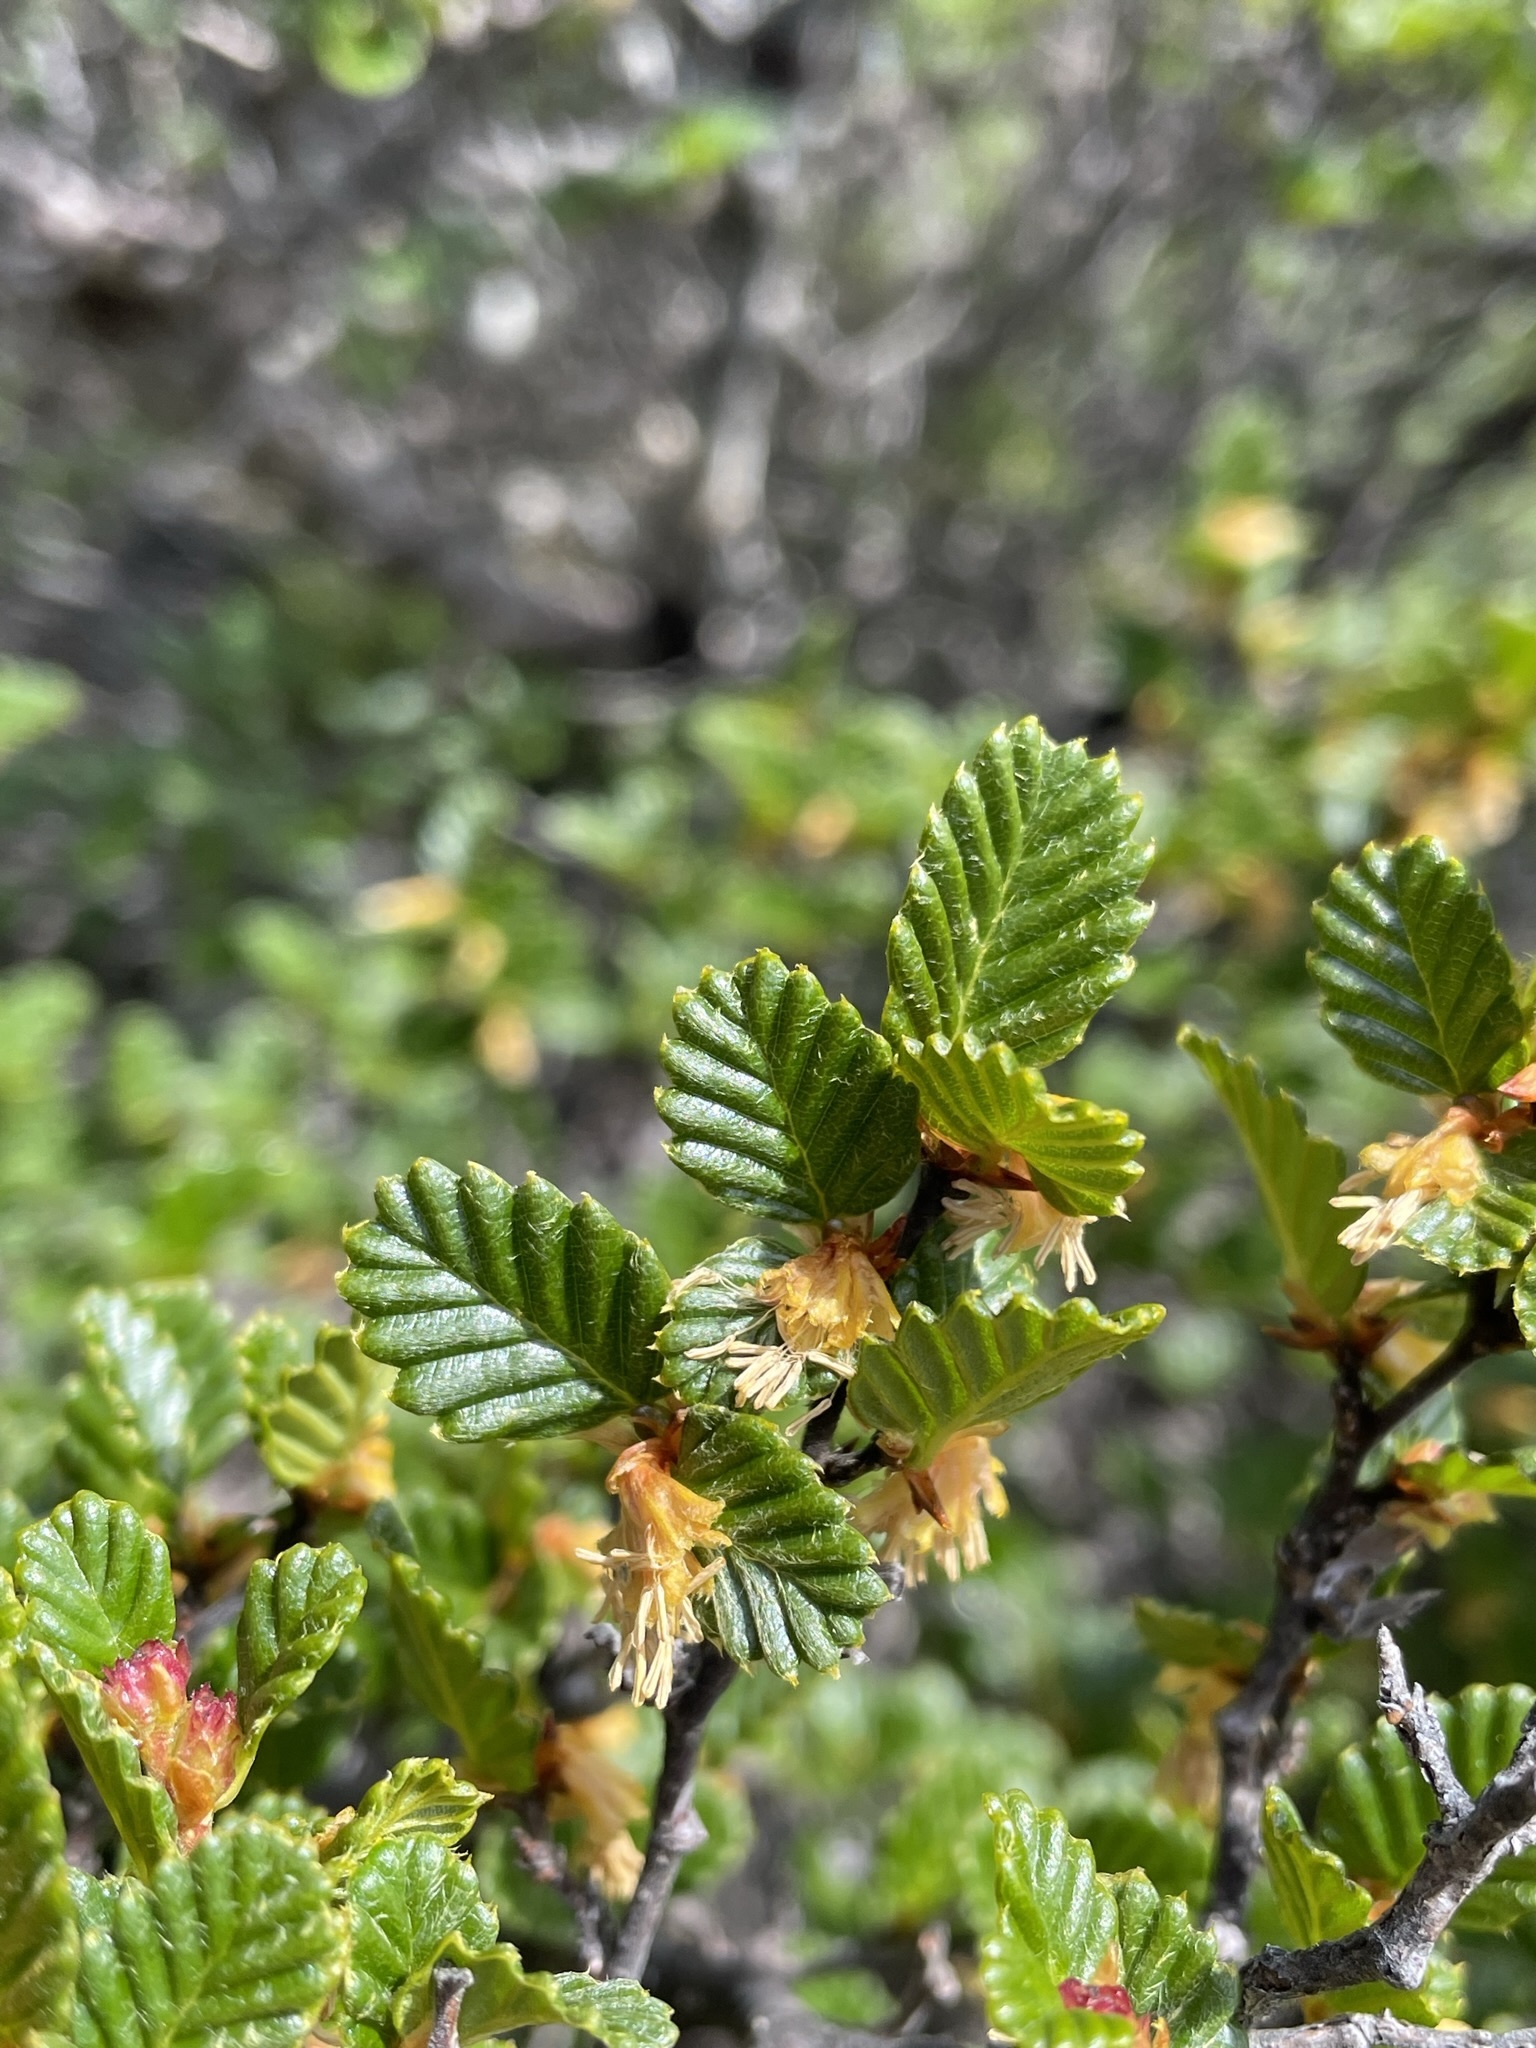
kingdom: Plantae
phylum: Tracheophyta
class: Magnoliopsida
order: Fagales
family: Nothofagaceae
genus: Nothofagus
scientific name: Nothofagus gunnii
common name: Tanglefoot
